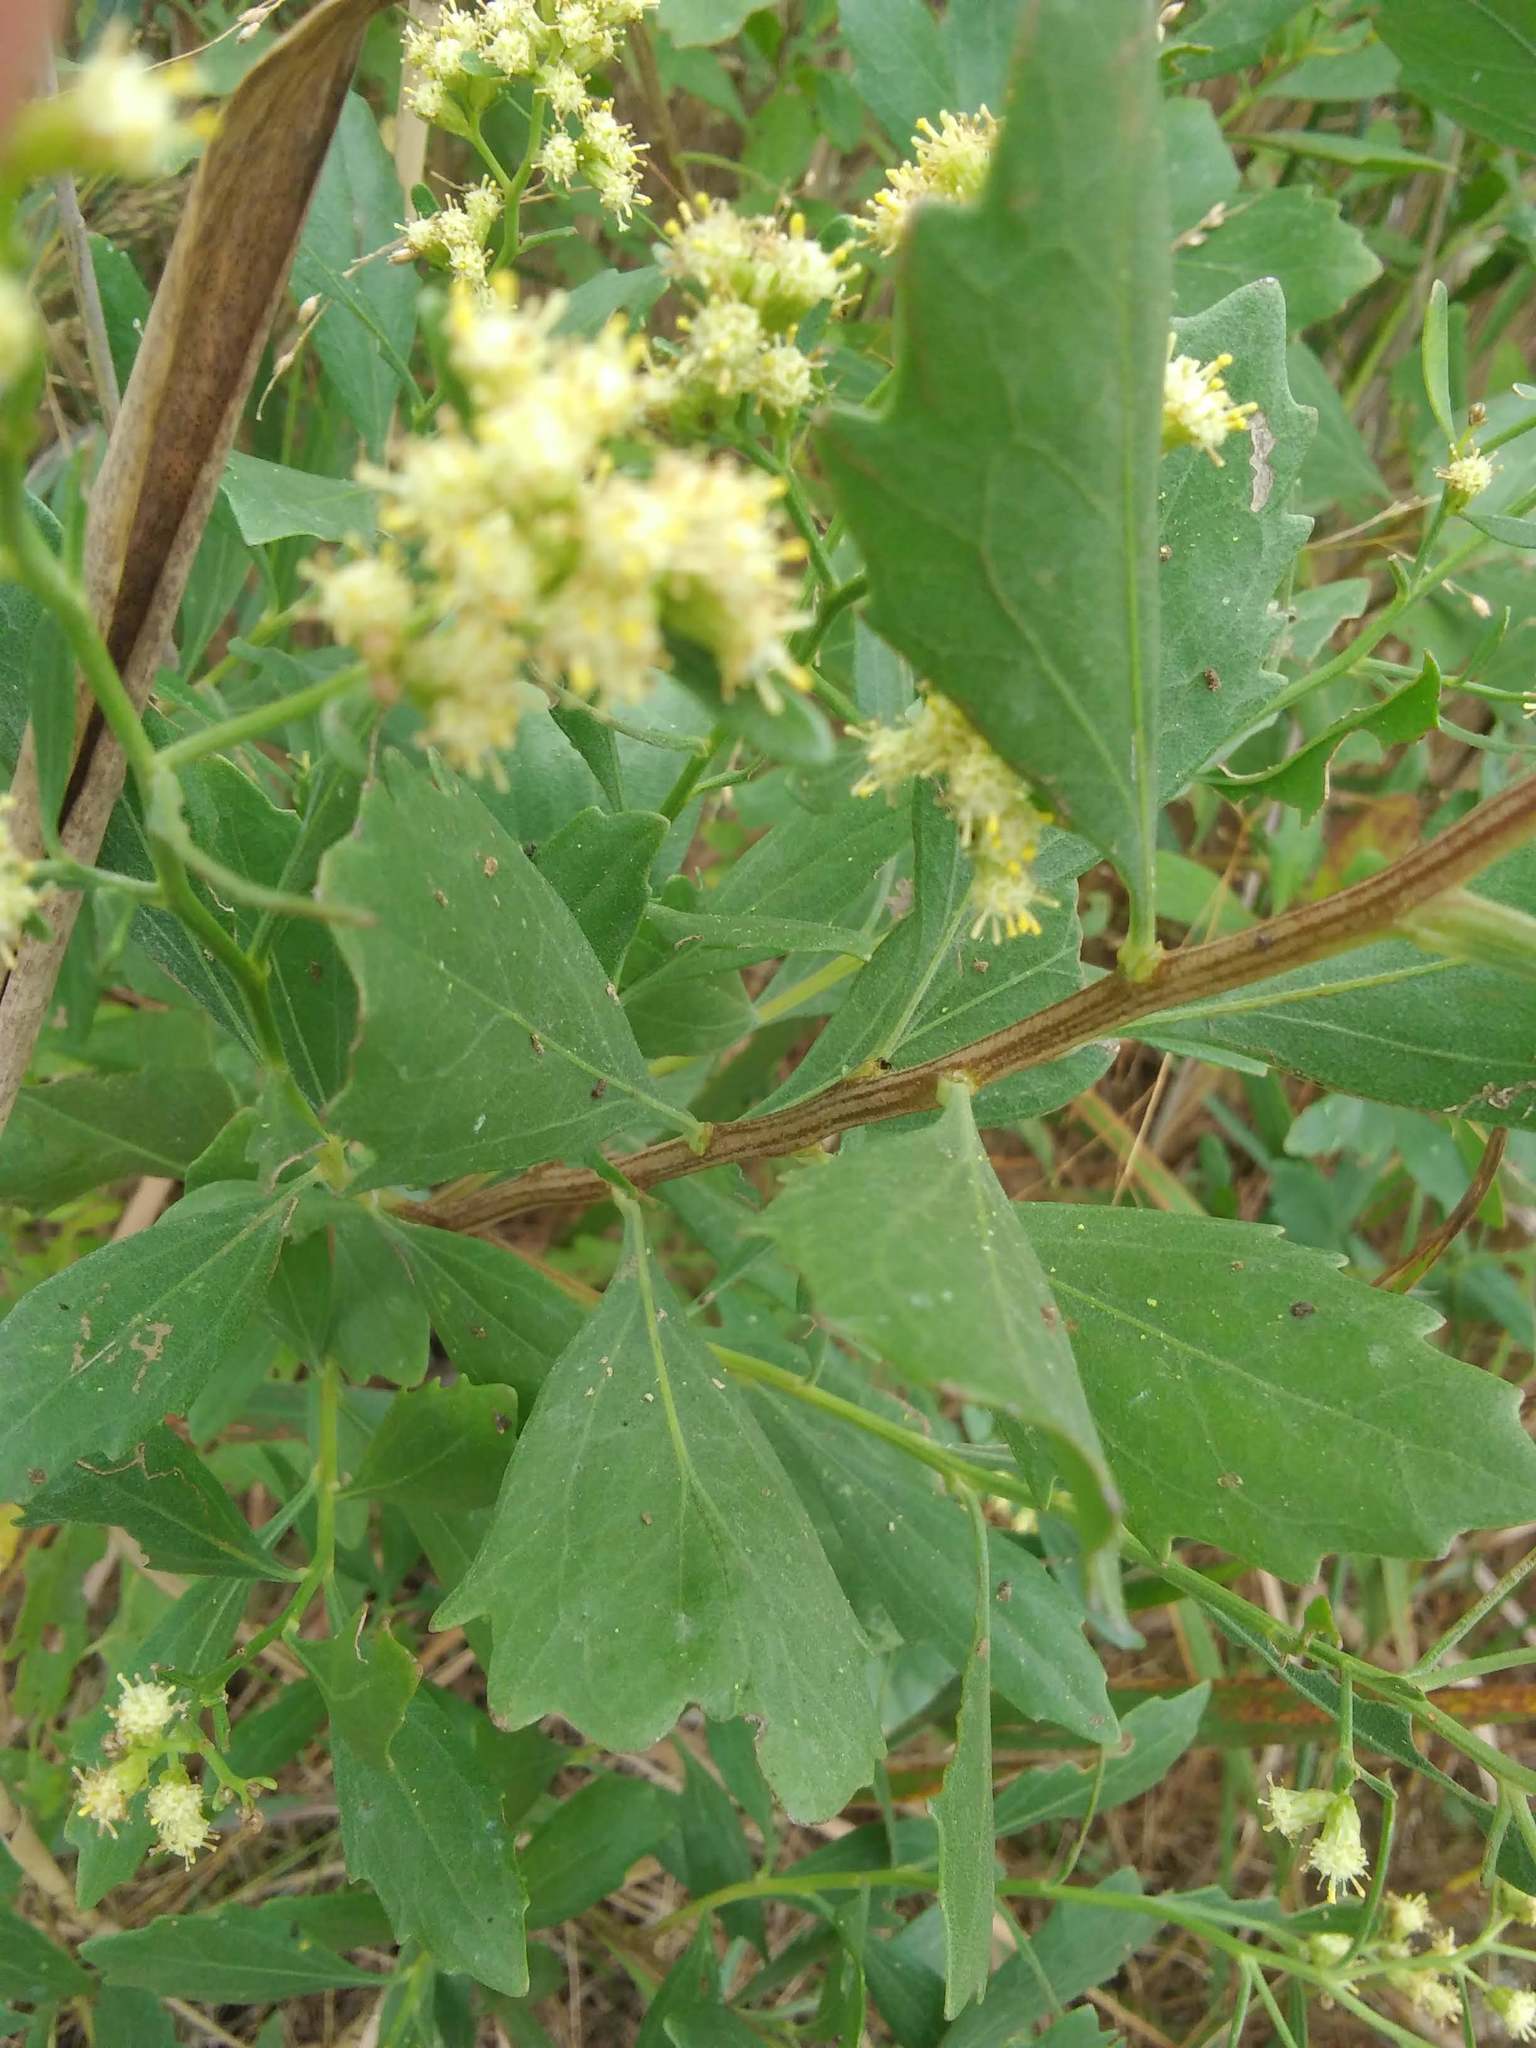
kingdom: Plantae
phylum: Tracheophyta
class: Magnoliopsida
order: Asterales
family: Asteraceae
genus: Baccharis
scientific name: Baccharis halimifolia
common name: Eastern baccharis
